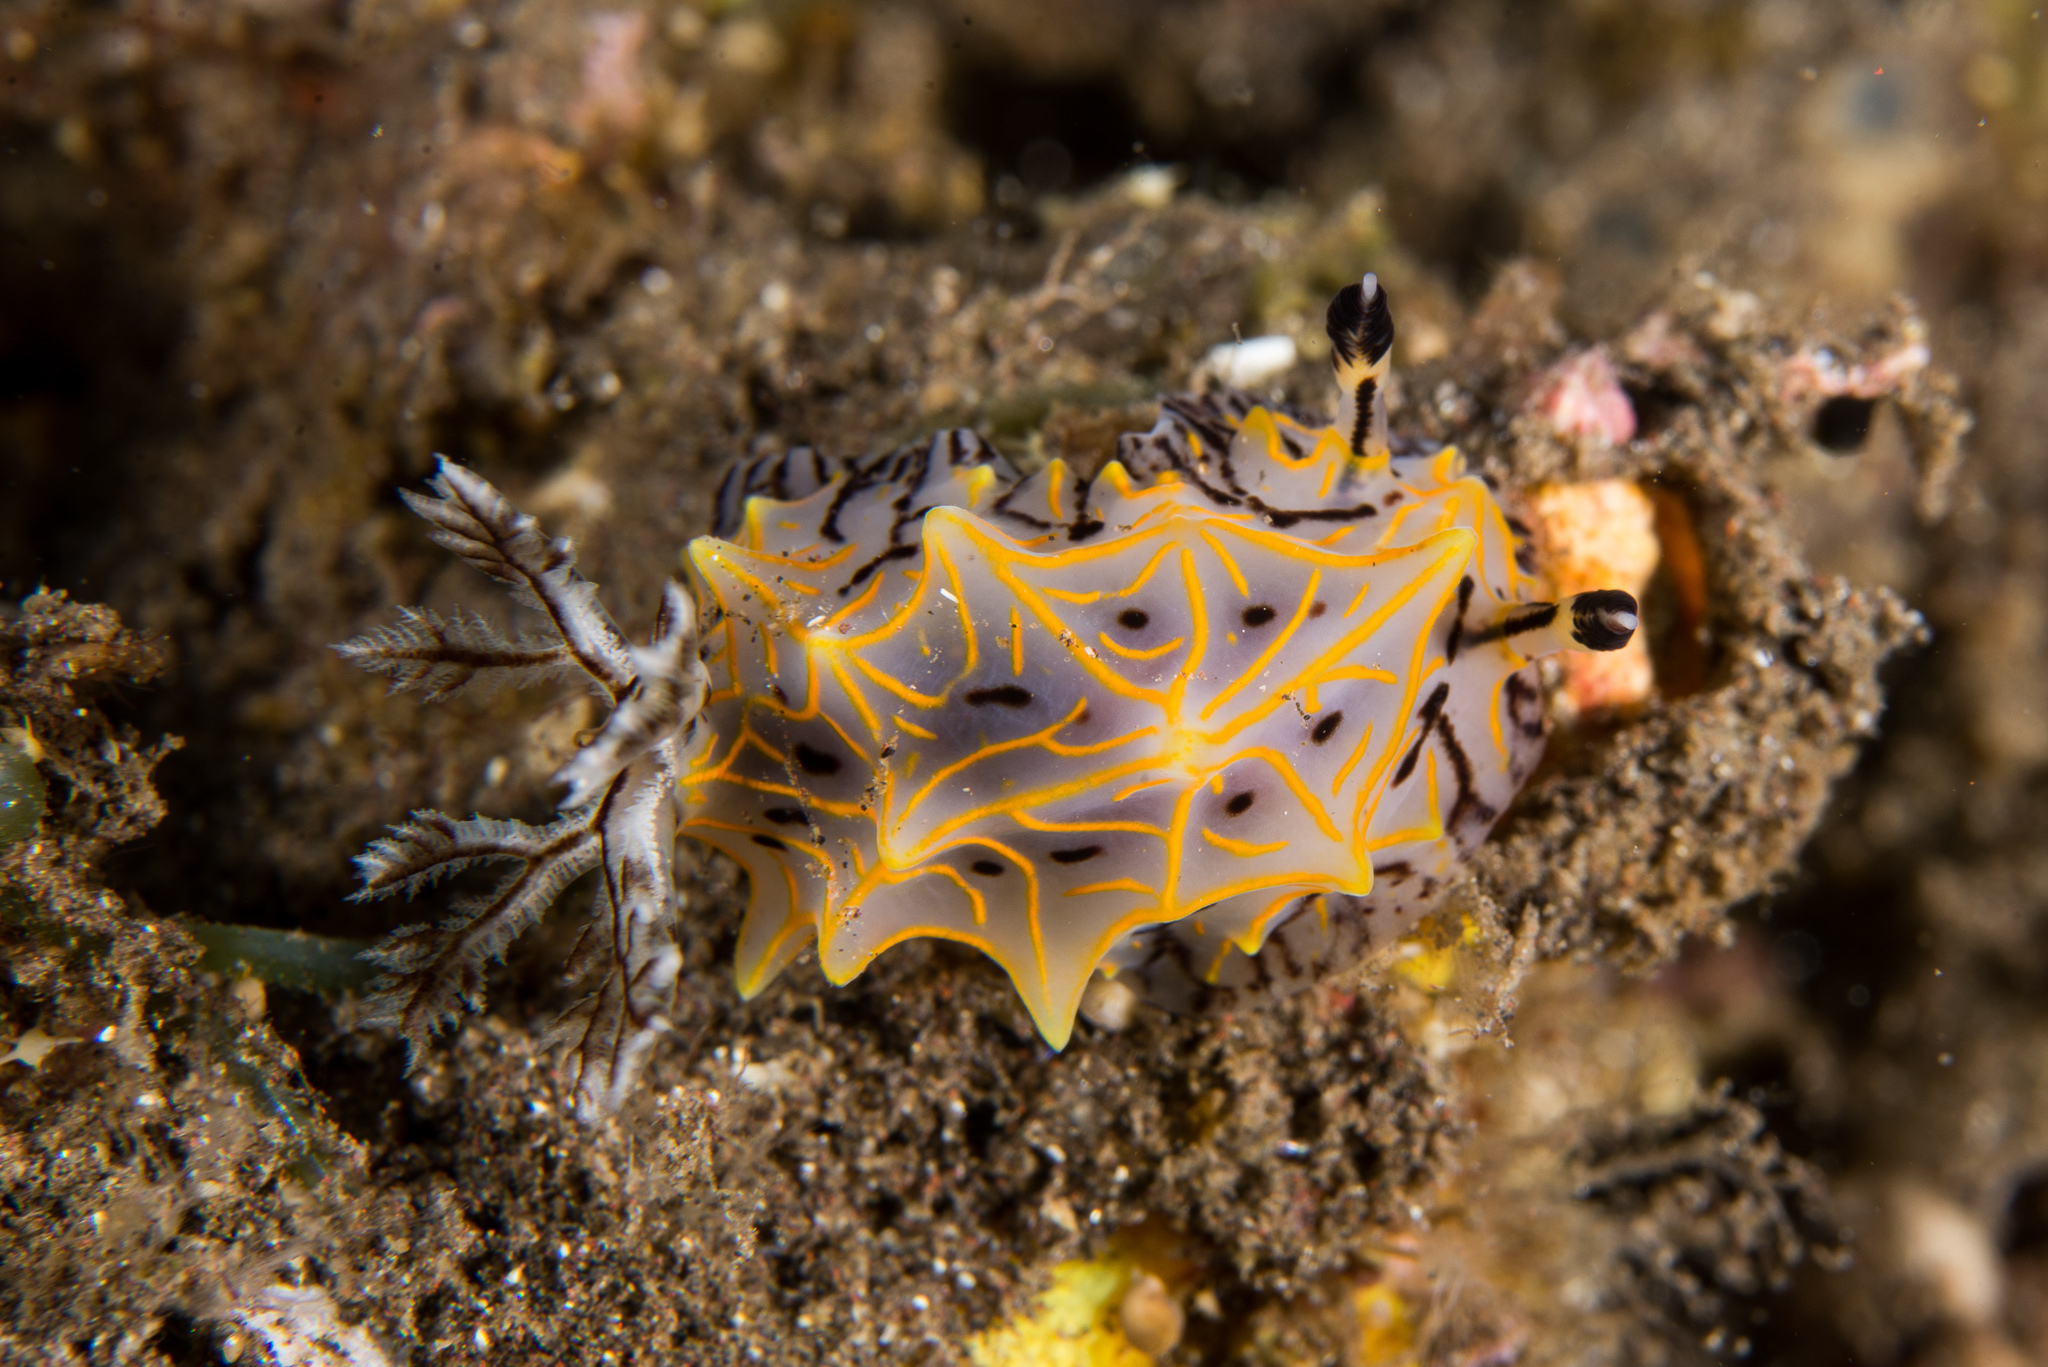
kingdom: Animalia
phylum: Mollusca
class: Gastropoda
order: Nudibranchia
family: Discodorididae
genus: Halgerda
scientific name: Halgerda willeyi
